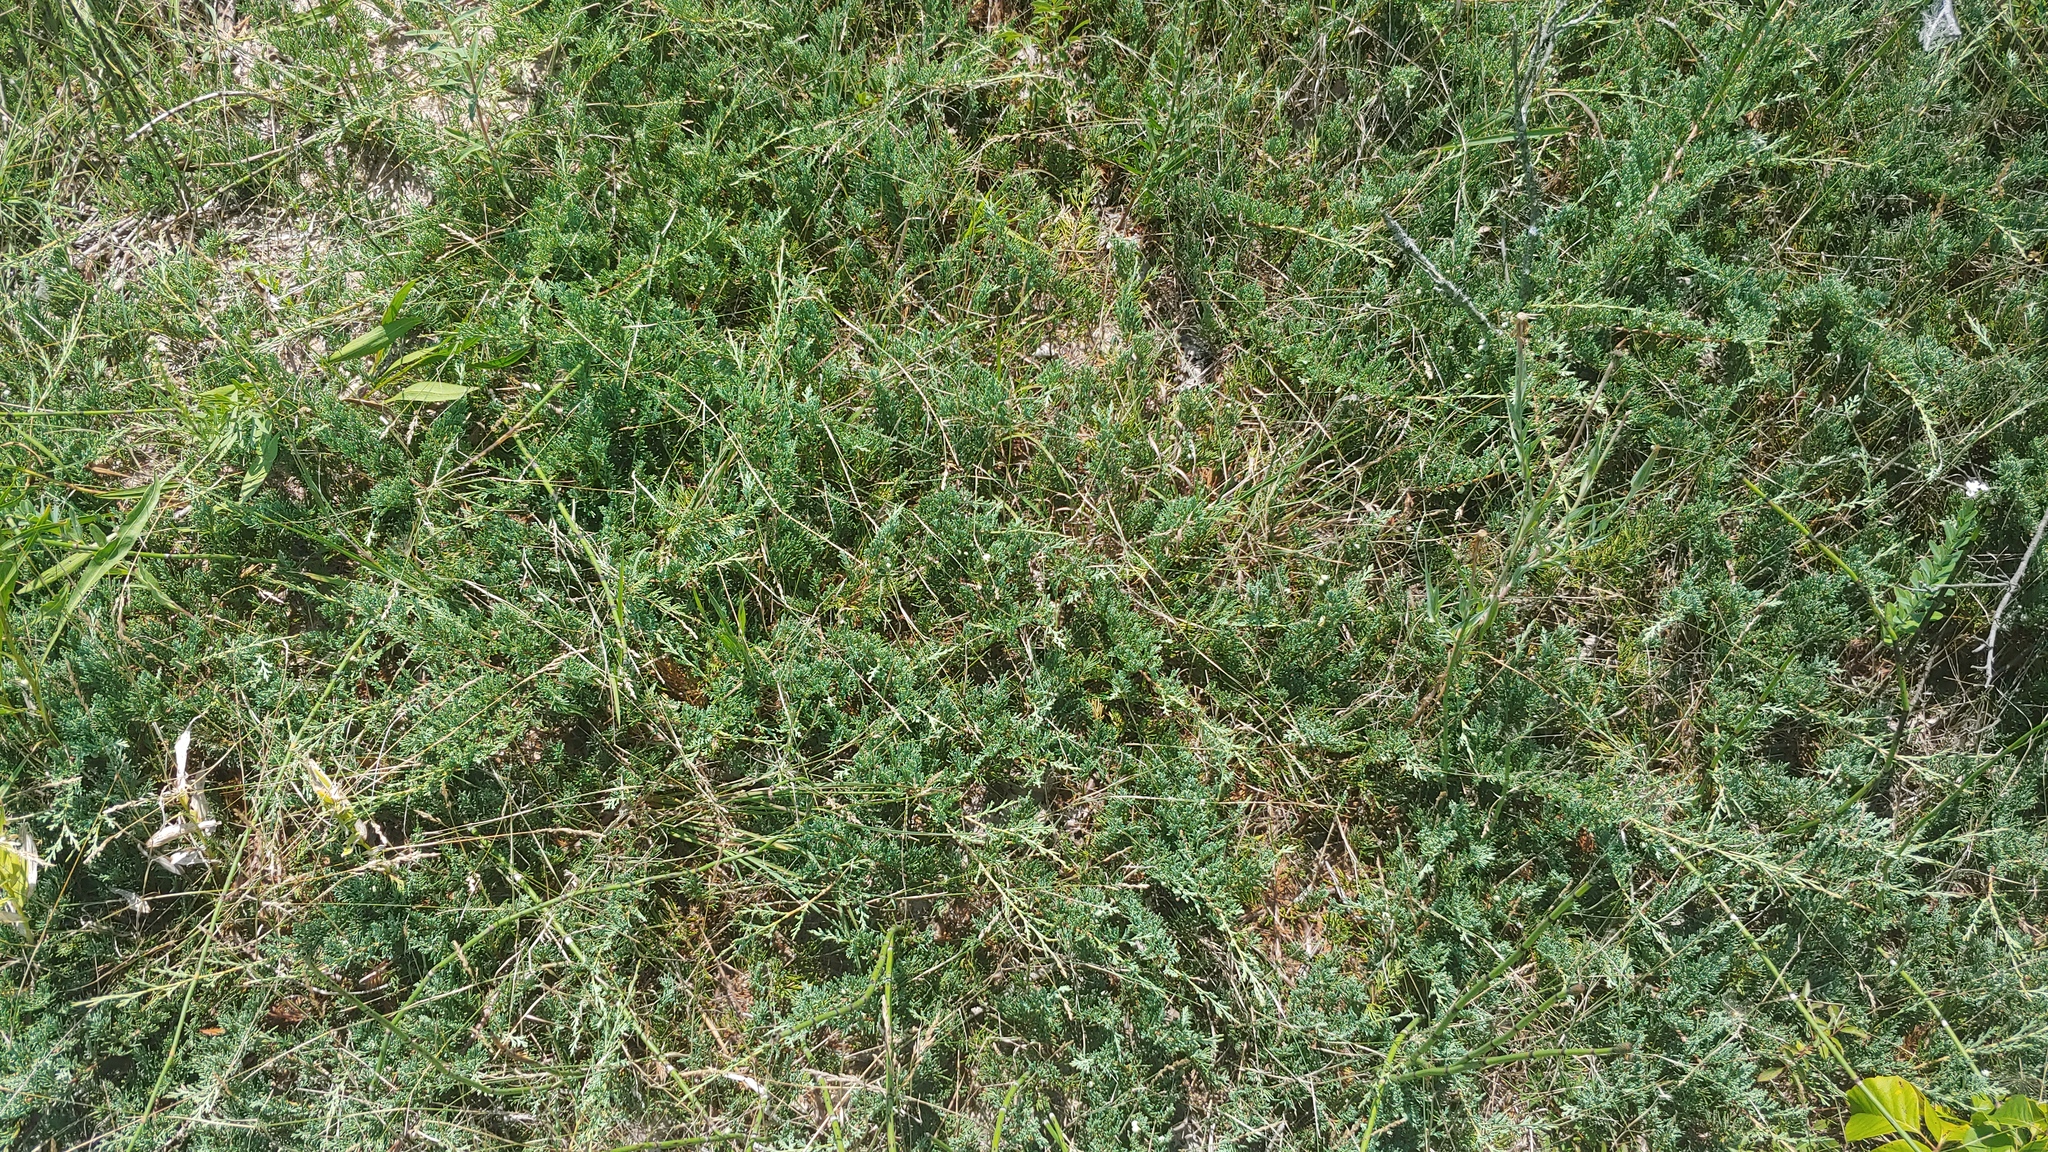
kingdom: Plantae
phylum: Tracheophyta
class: Pinopsida
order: Pinales
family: Cupressaceae
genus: Juniperus
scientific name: Juniperus horizontalis
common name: Creeping juniper
